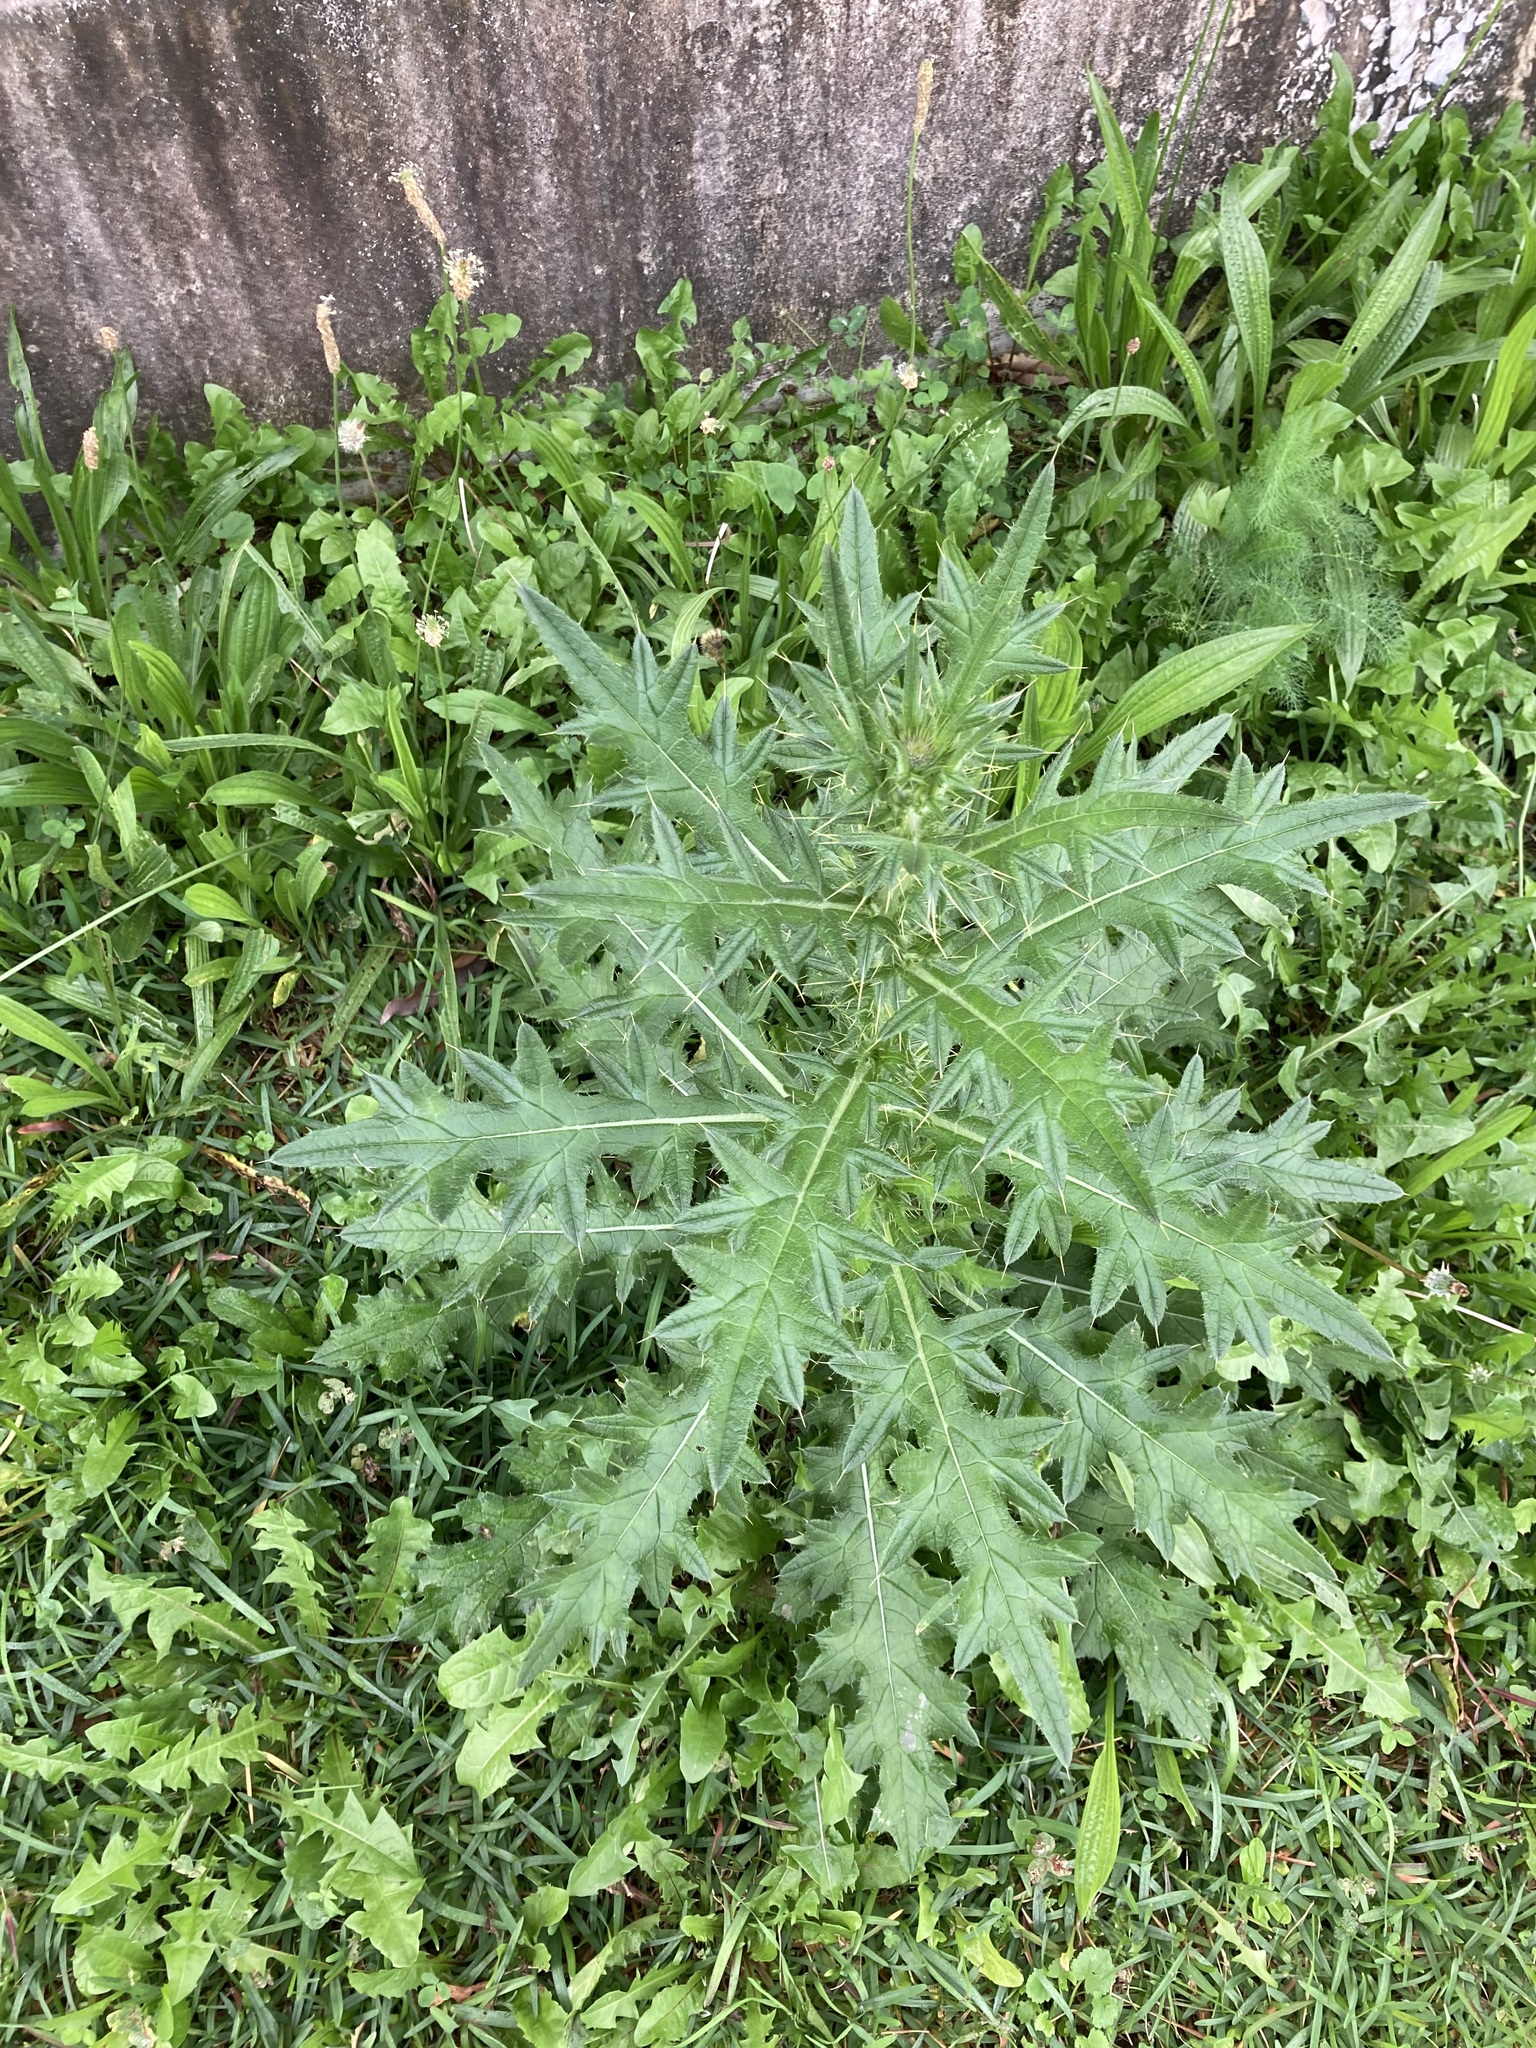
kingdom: Plantae
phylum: Tracheophyta
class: Magnoliopsida
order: Asterales
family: Asteraceae
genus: Cirsium
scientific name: Cirsium vulgare
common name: Bull thistle
